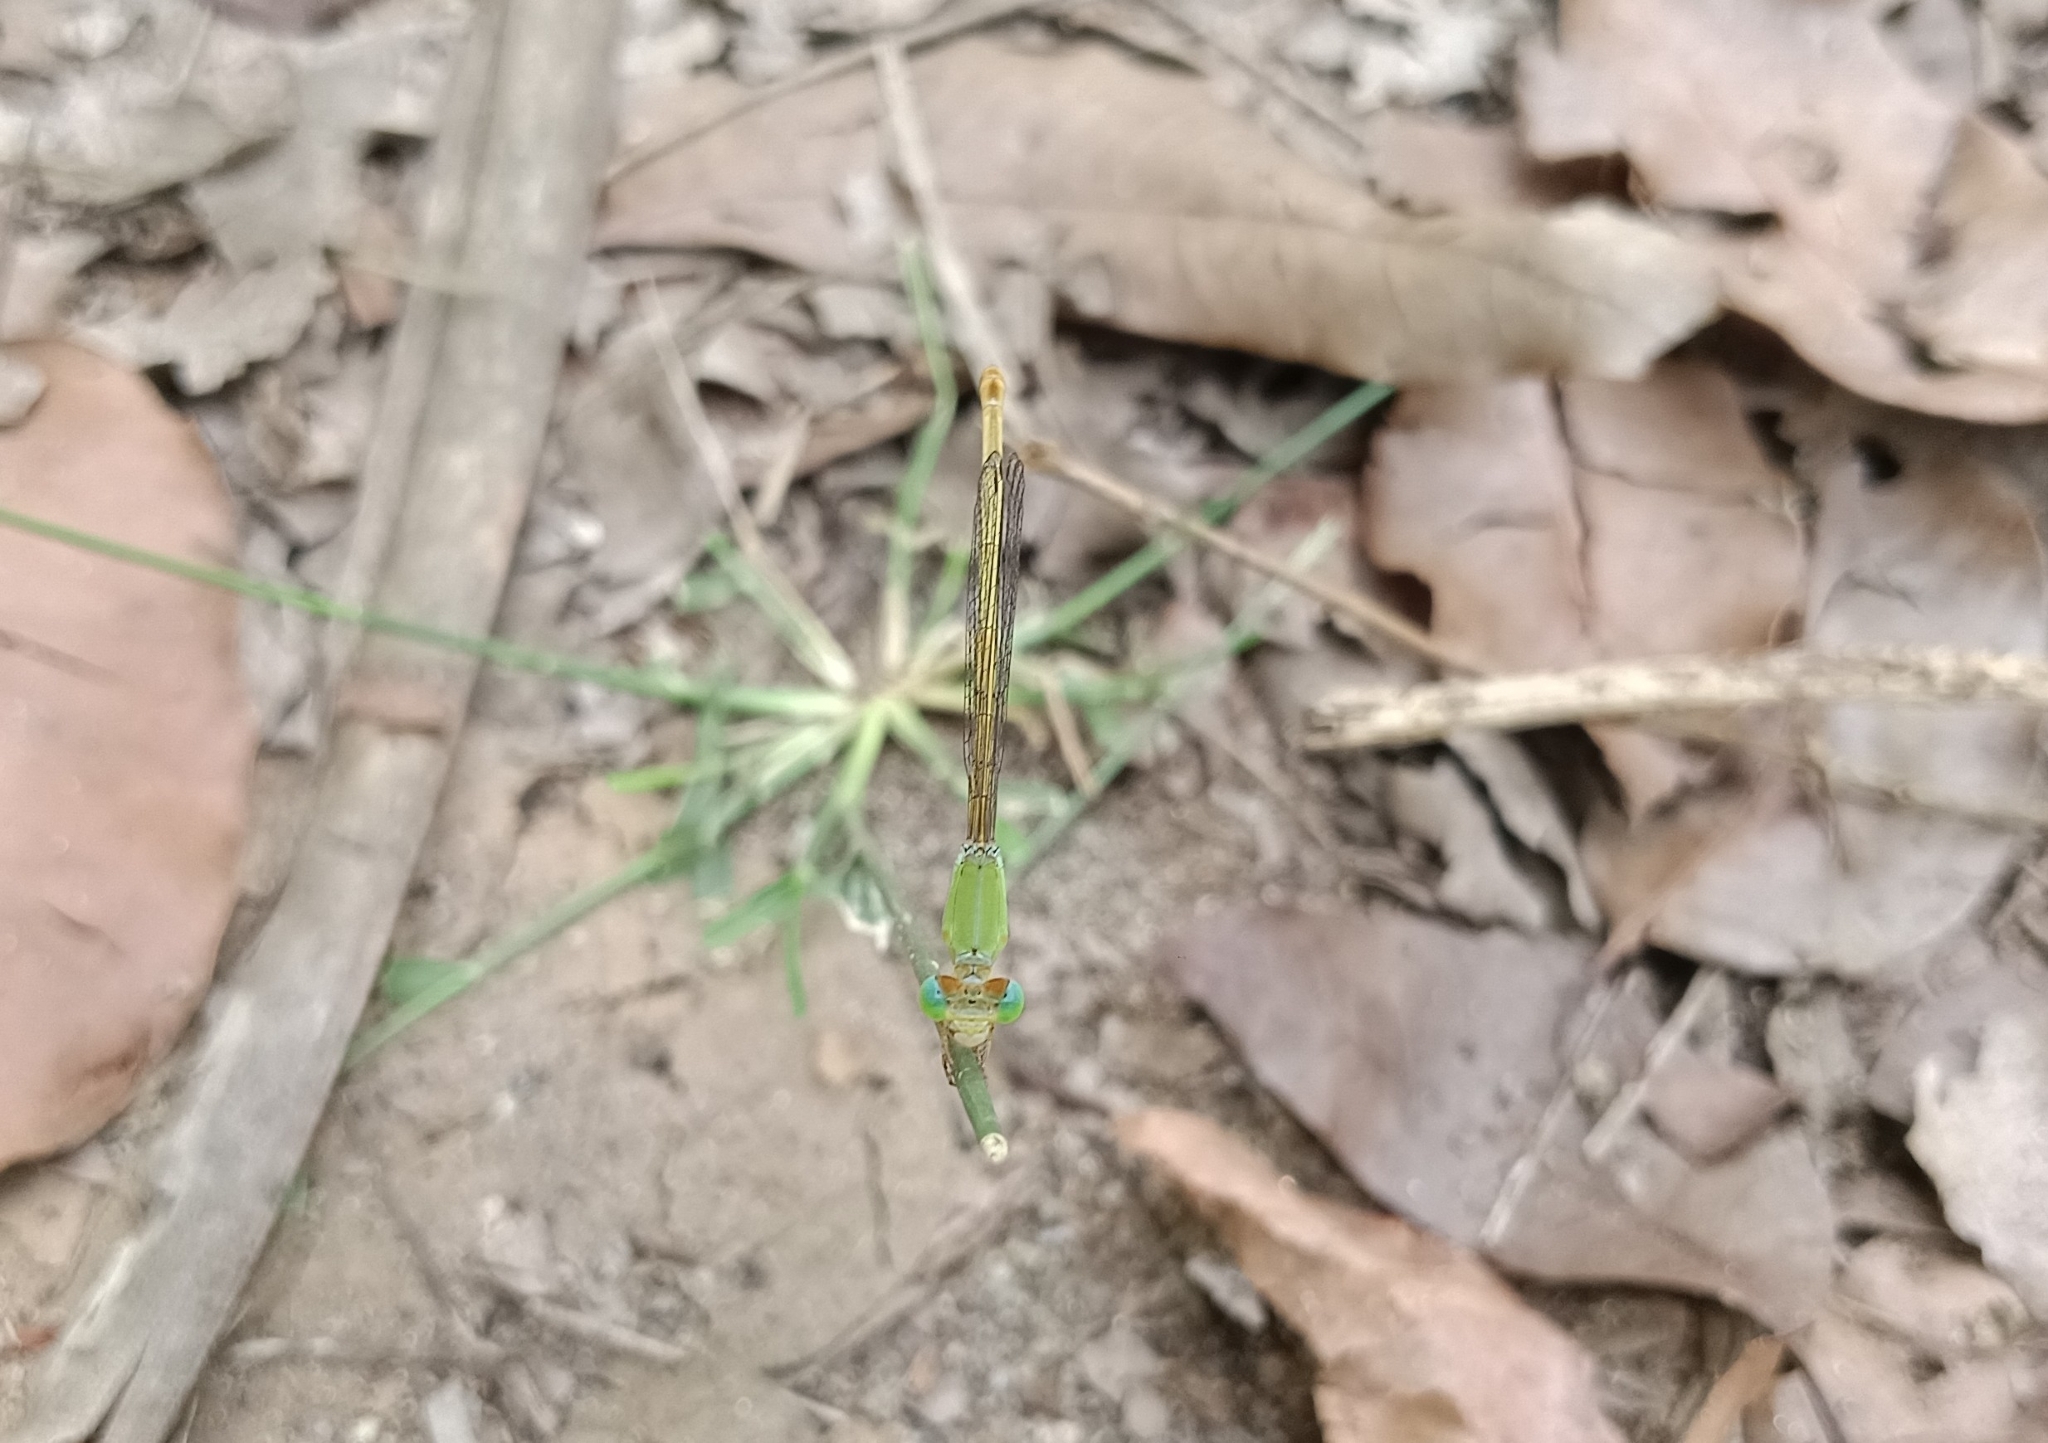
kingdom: Animalia
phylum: Arthropoda
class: Insecta
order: Odonata
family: Coenagrionidae
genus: Ceriagrion
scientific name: Ceriagrion coromandelianum
